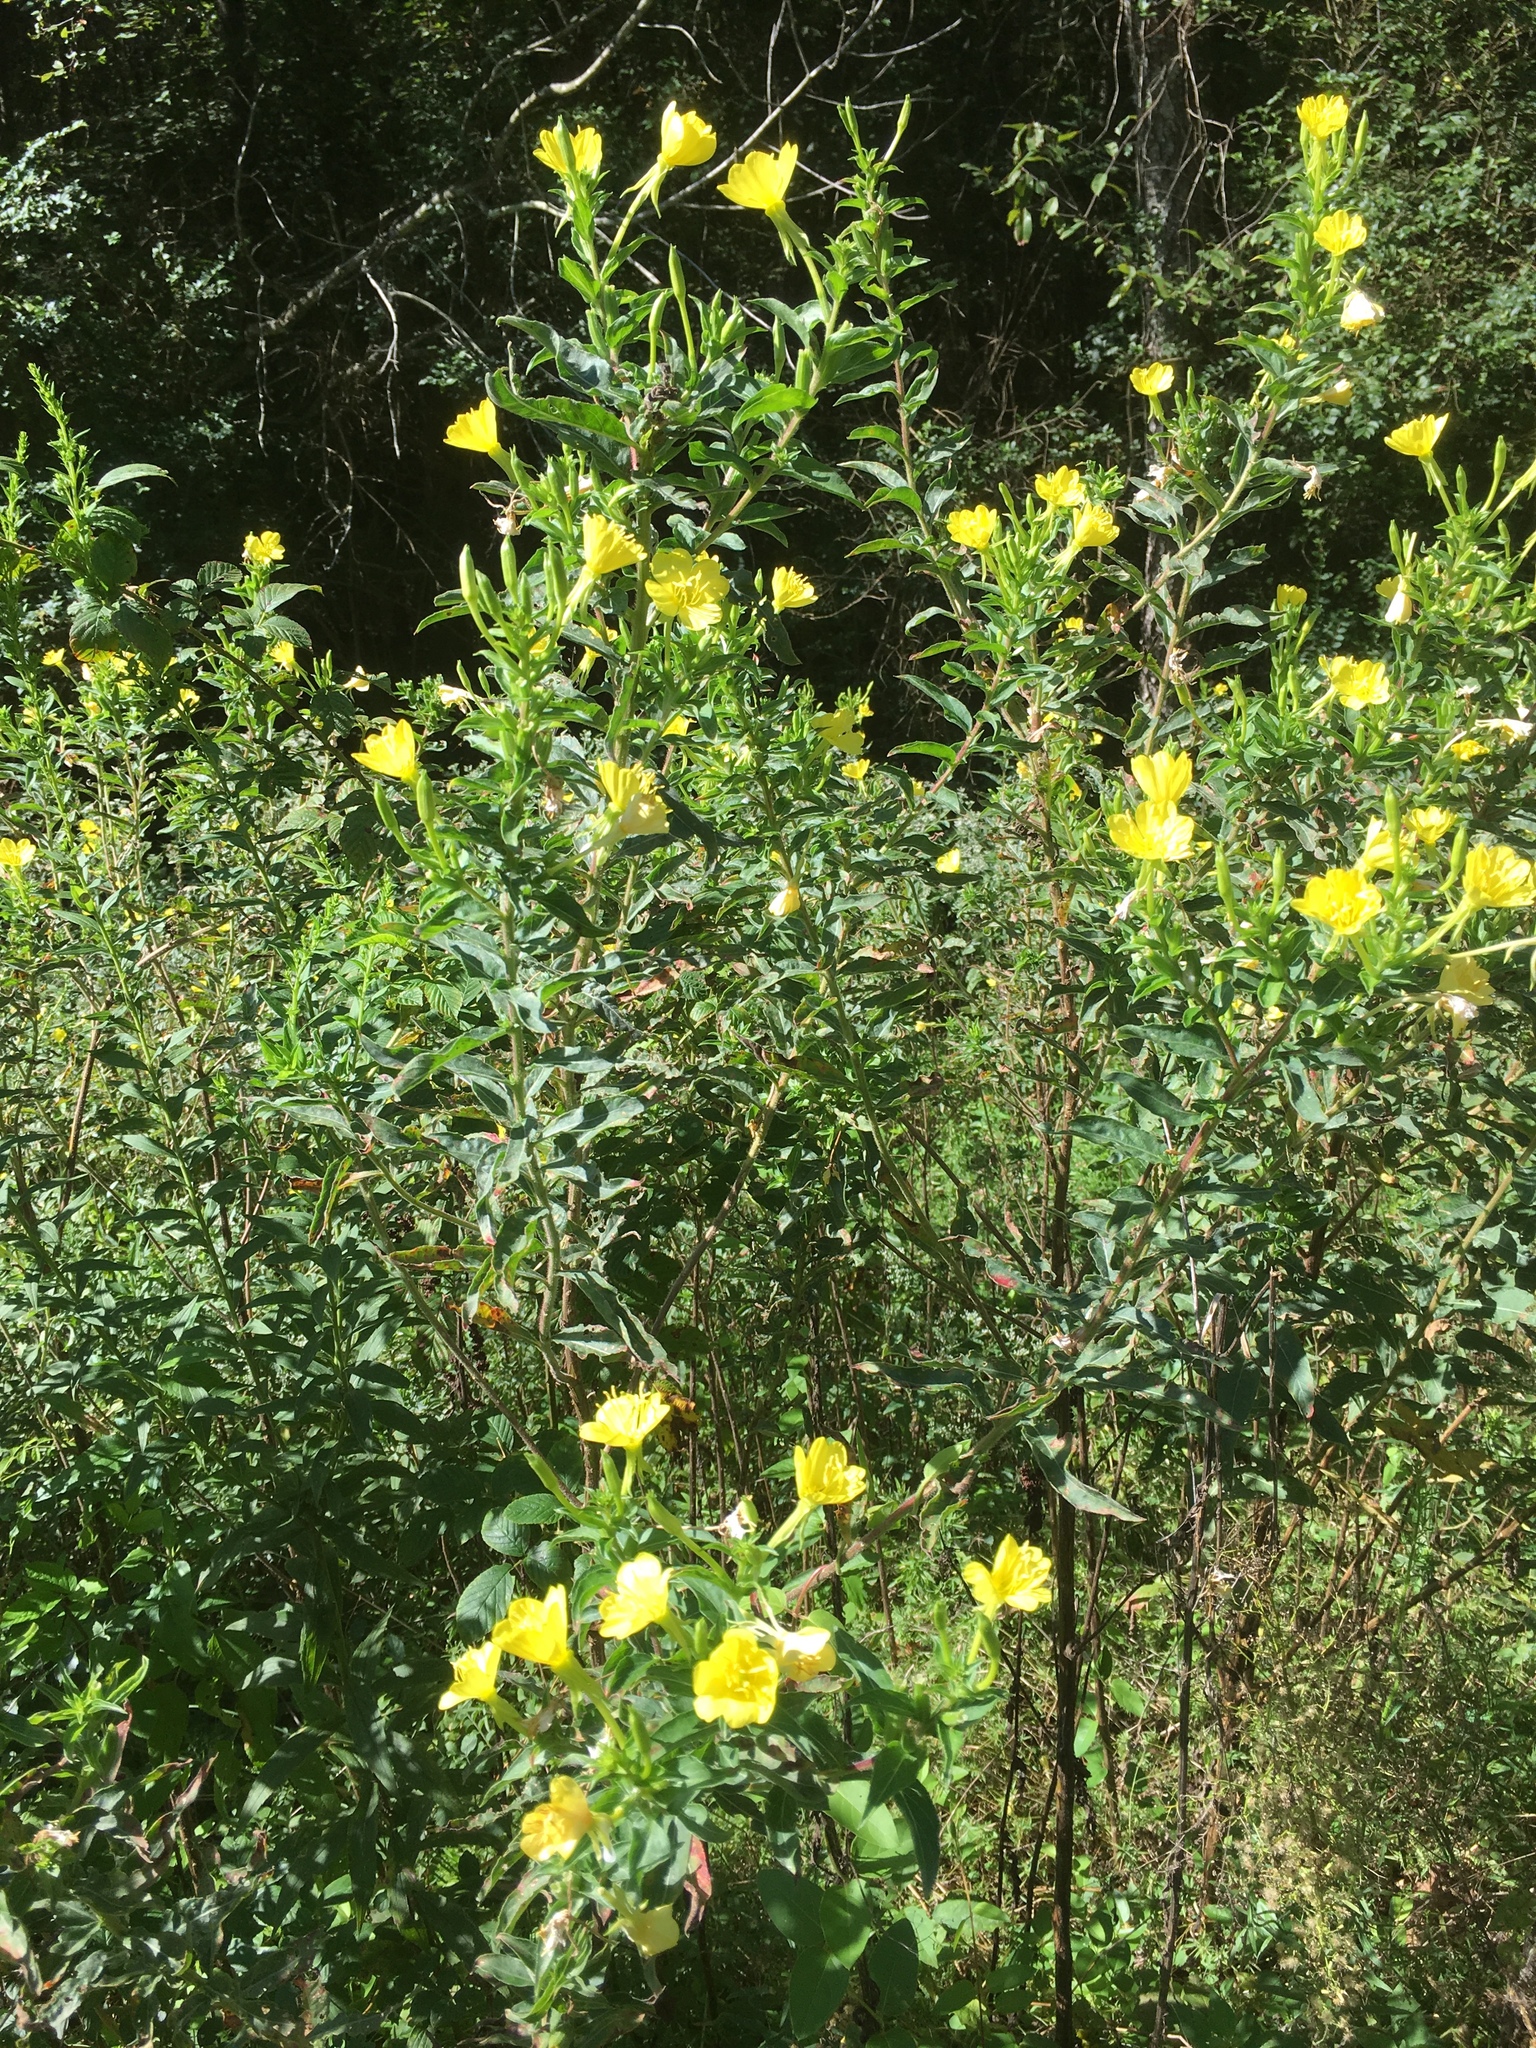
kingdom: Plantae
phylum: Tracheophyta
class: Magnoliopsida
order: Myrtales
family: Onagraceae
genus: Oenothera
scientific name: Oenothera biennis
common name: Common evening-primrose
